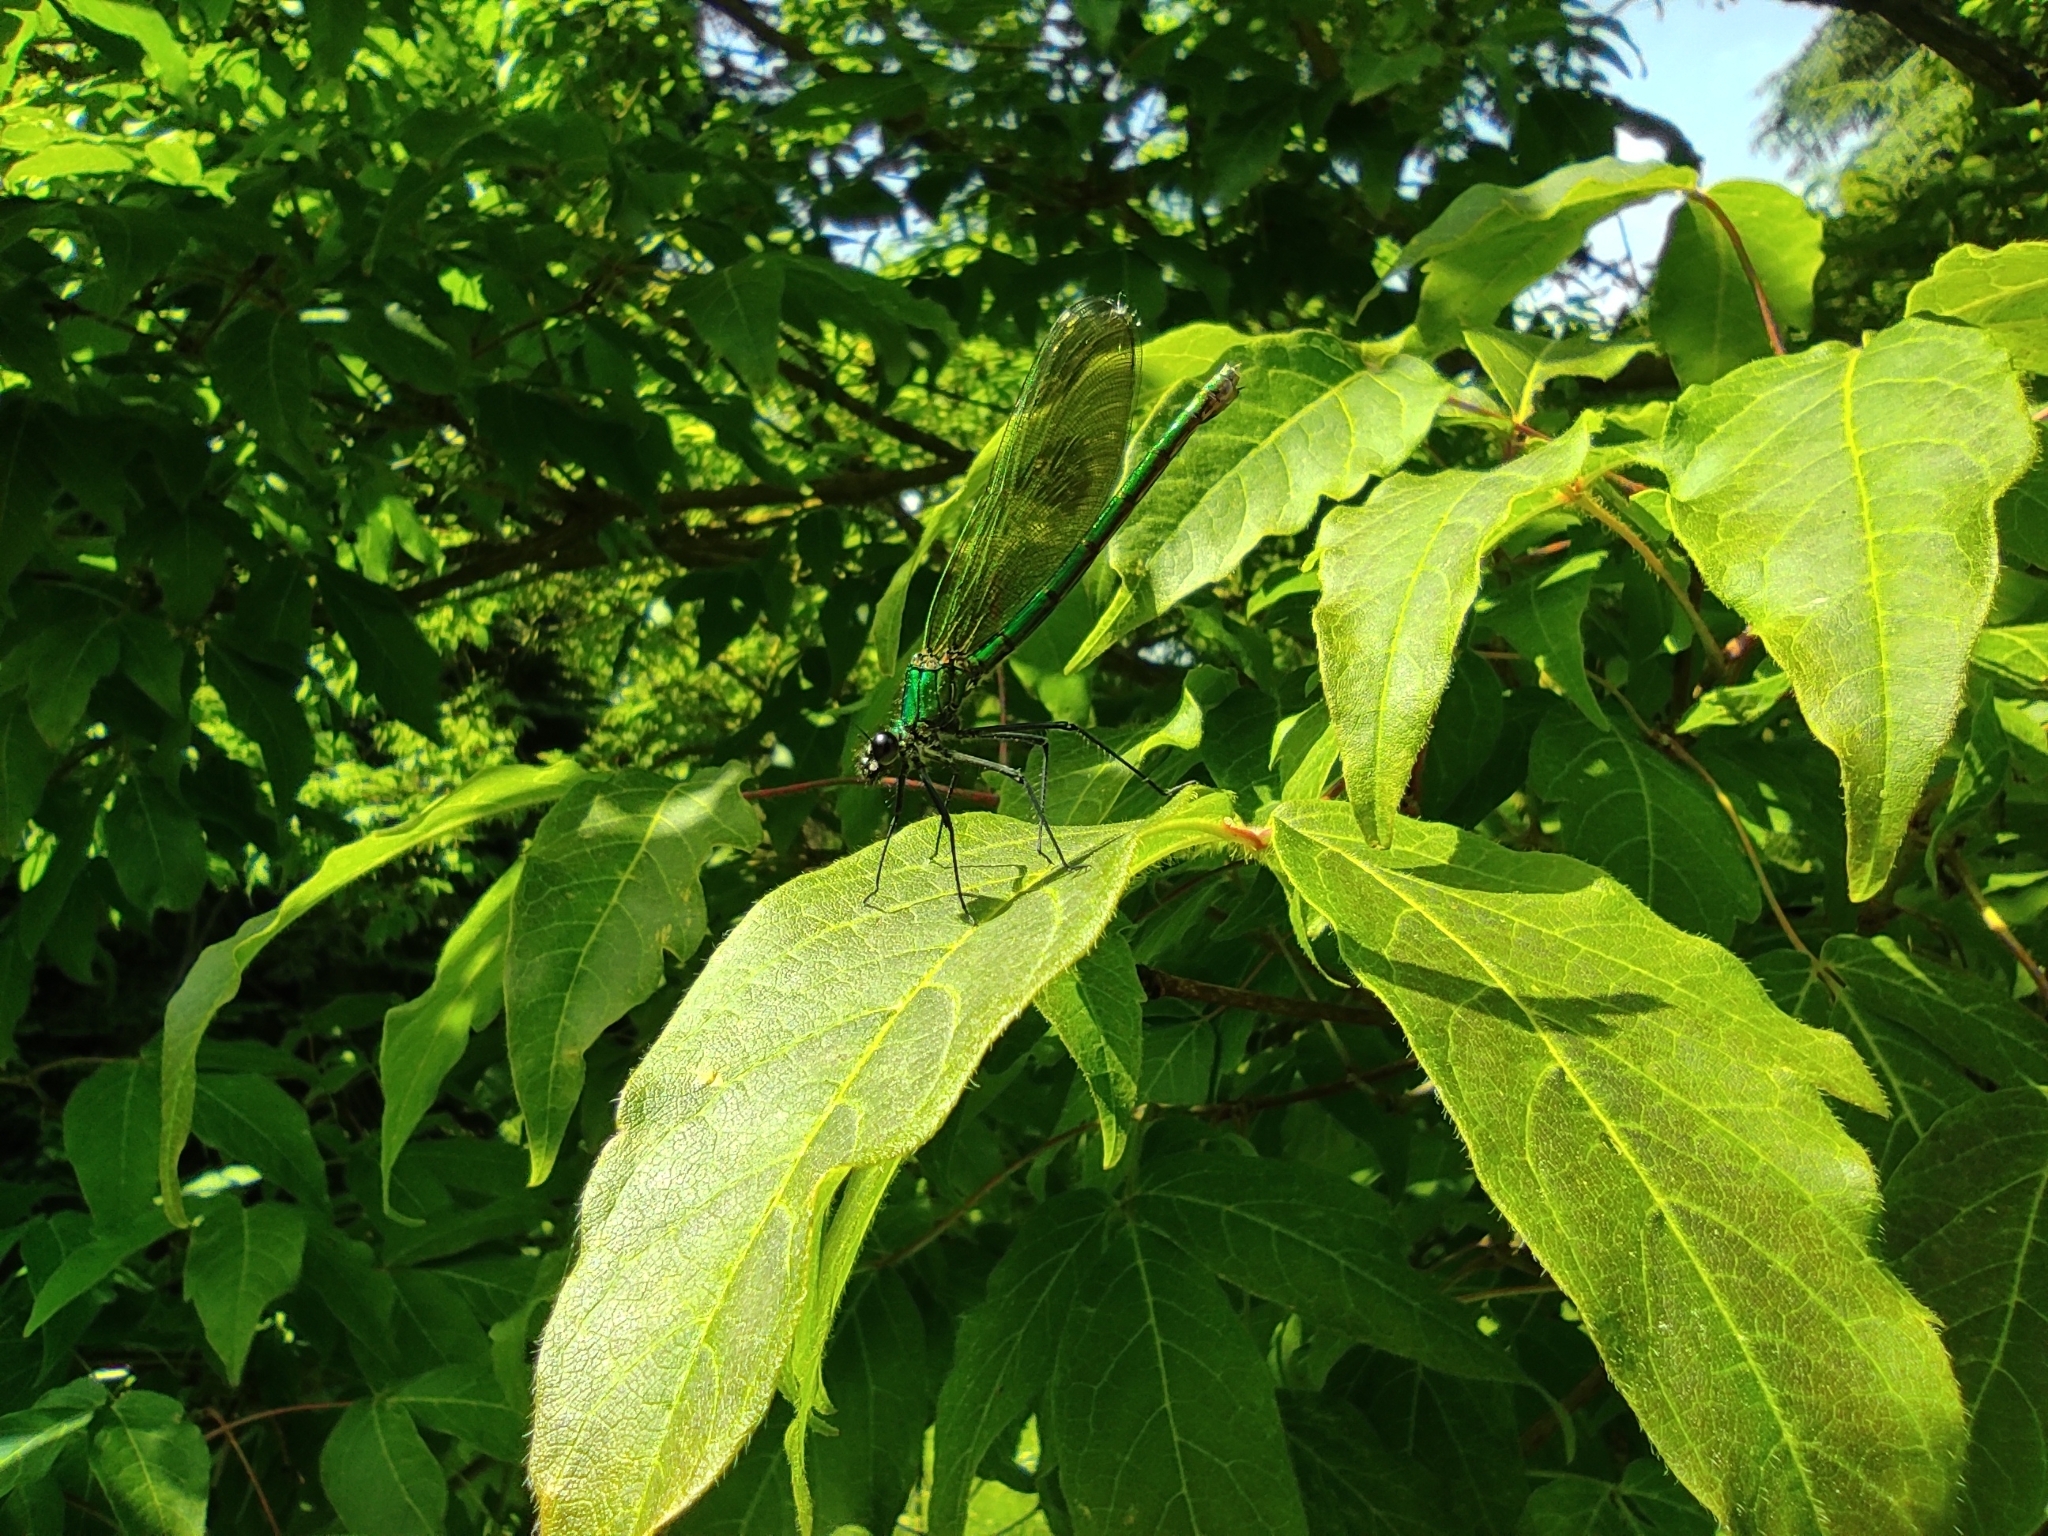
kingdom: Animalia
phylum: Arthropoda
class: Insecta
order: Odonata
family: Calopterygidae
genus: Calopteryx
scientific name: Calopteryx splendens
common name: Banded demoiselle
